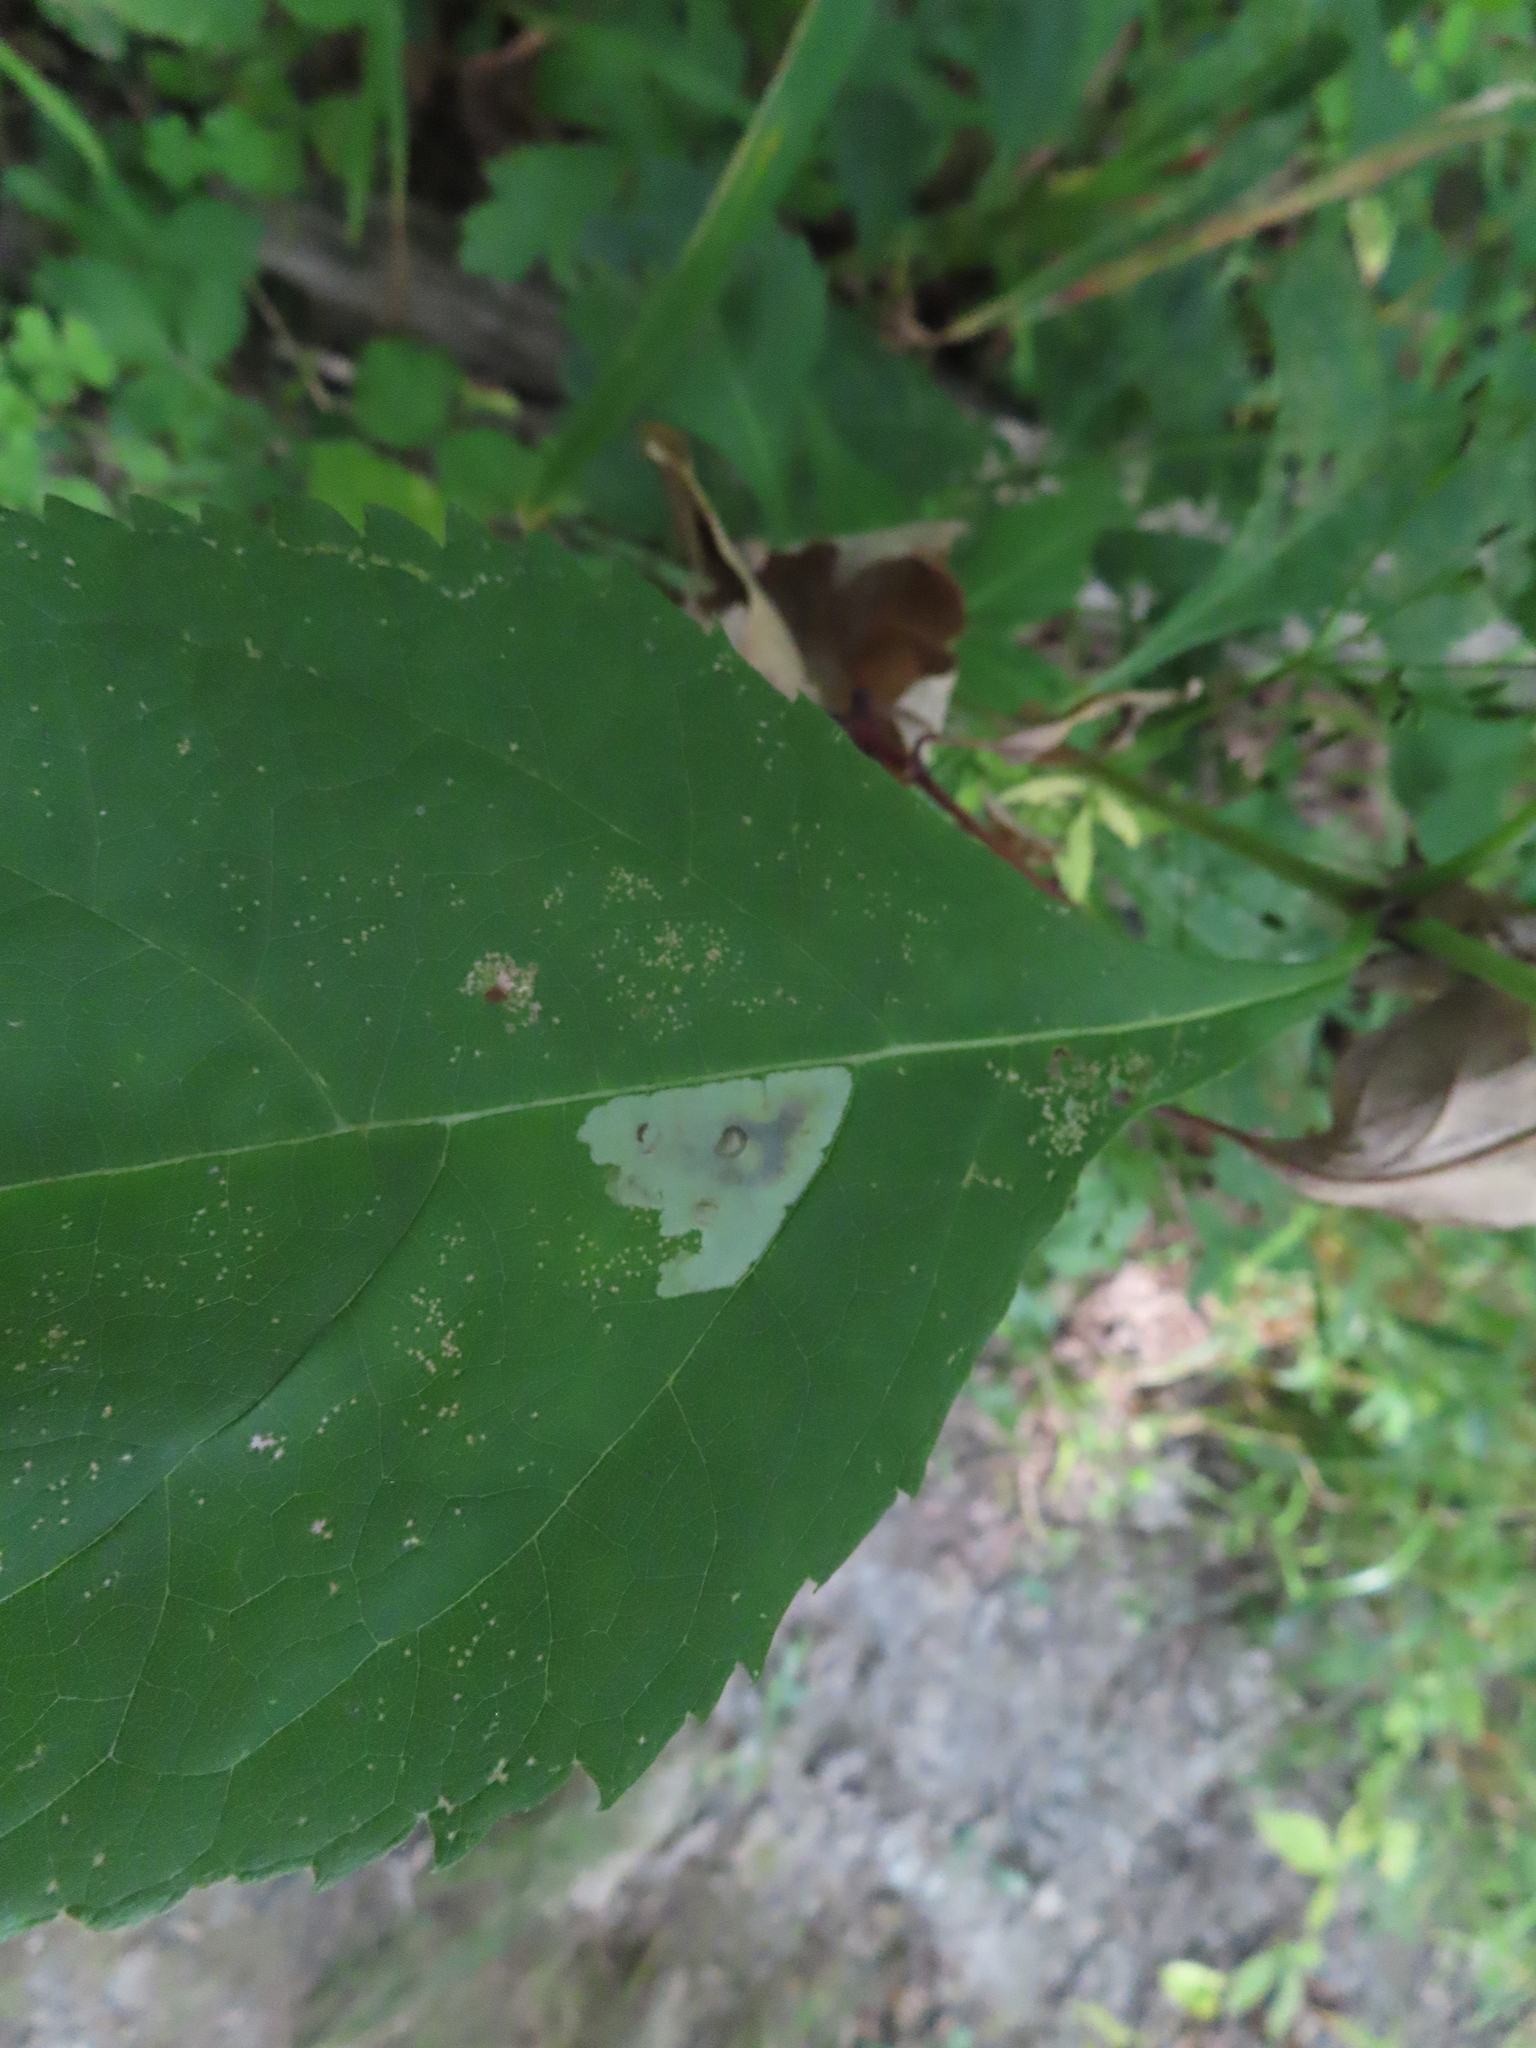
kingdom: Animalia
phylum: Arthropoda
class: Insecta
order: Diptera
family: Agromyzidae
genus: Calycomyza
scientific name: Calycomyza flavinotum
